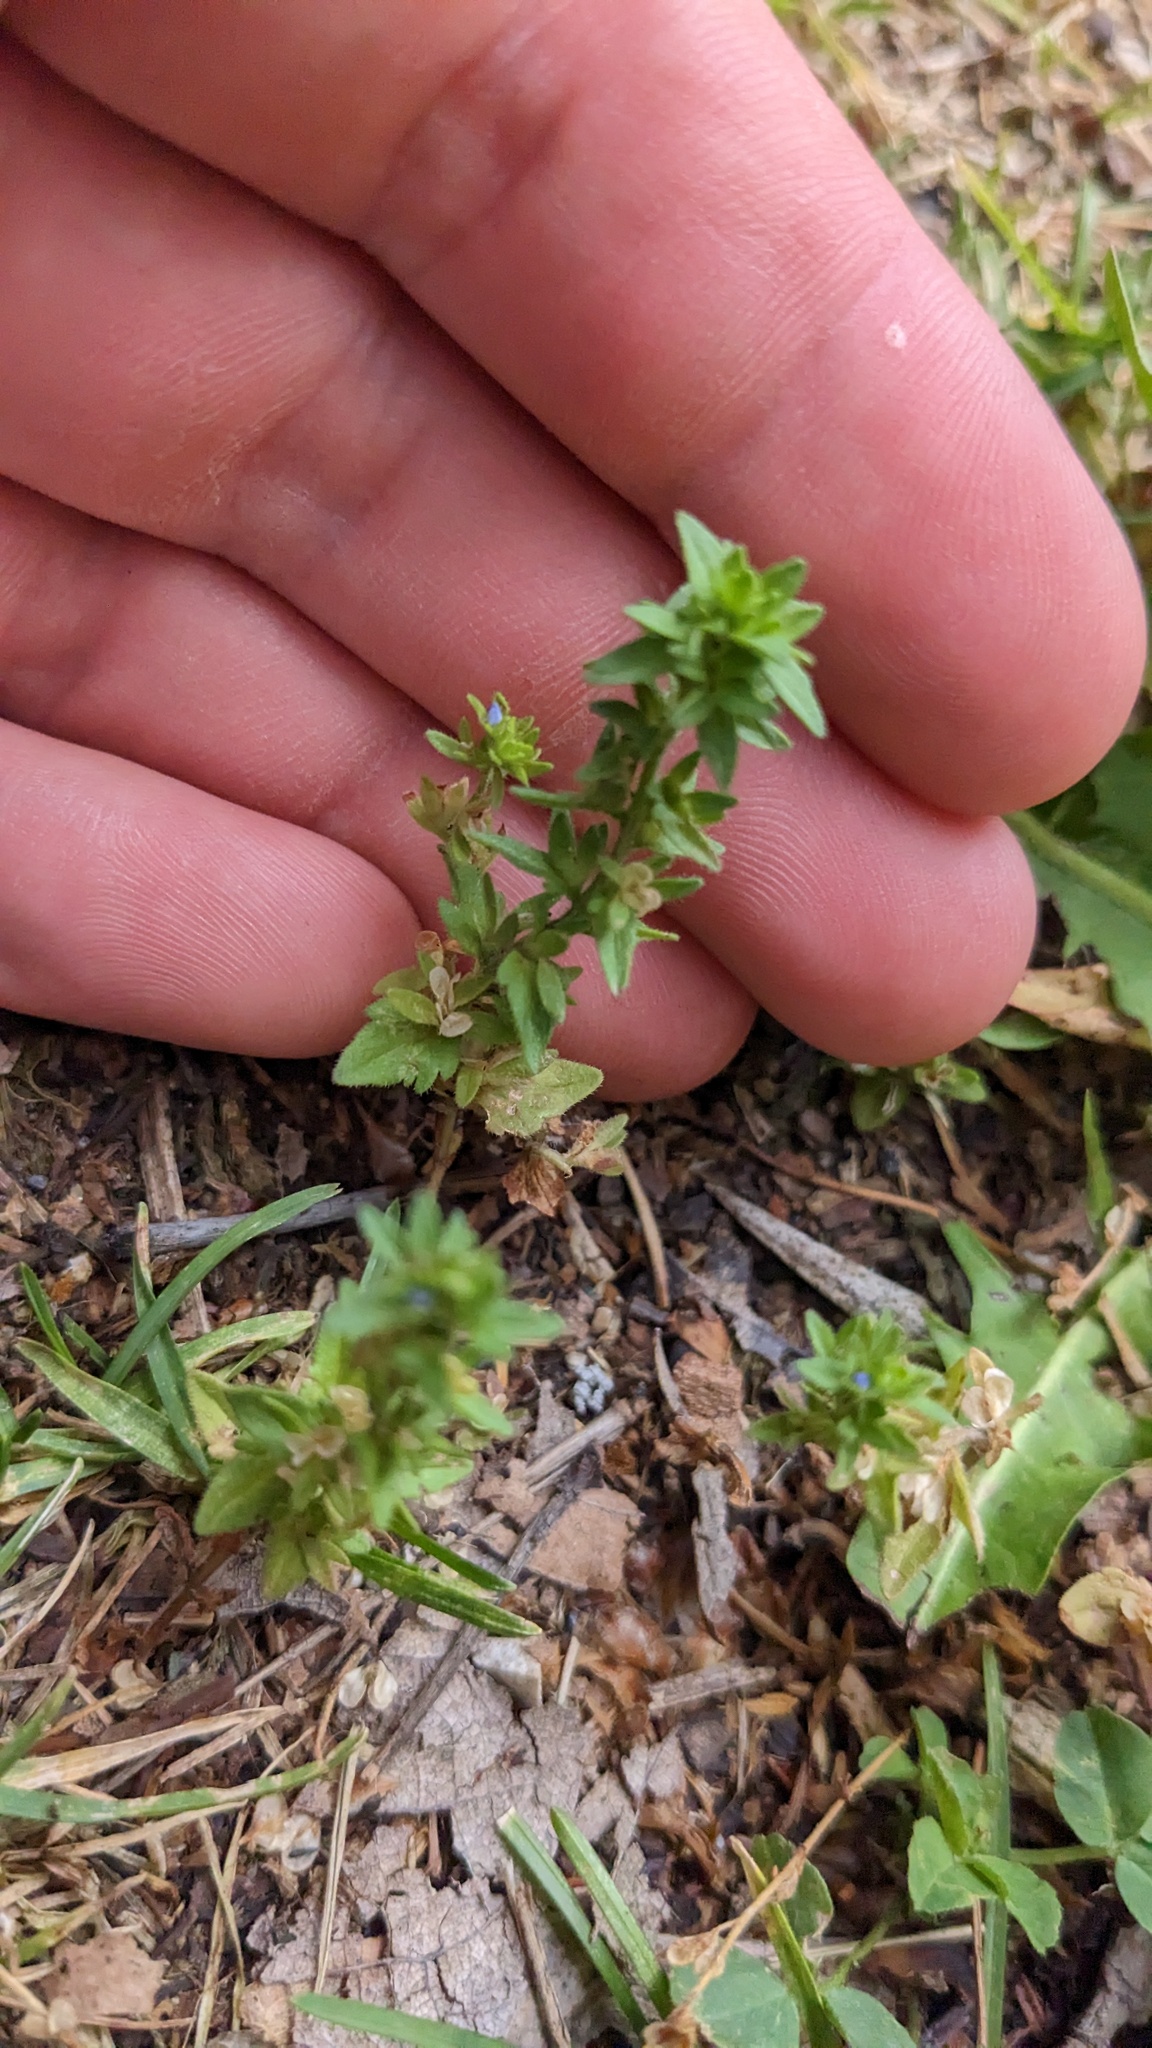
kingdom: Plantae
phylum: Tracheophyta
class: Magnoliopsida
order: Lamiales
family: Plantaginaceae
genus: Veronica
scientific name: Veronica arvensis
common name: Corn speedwell
